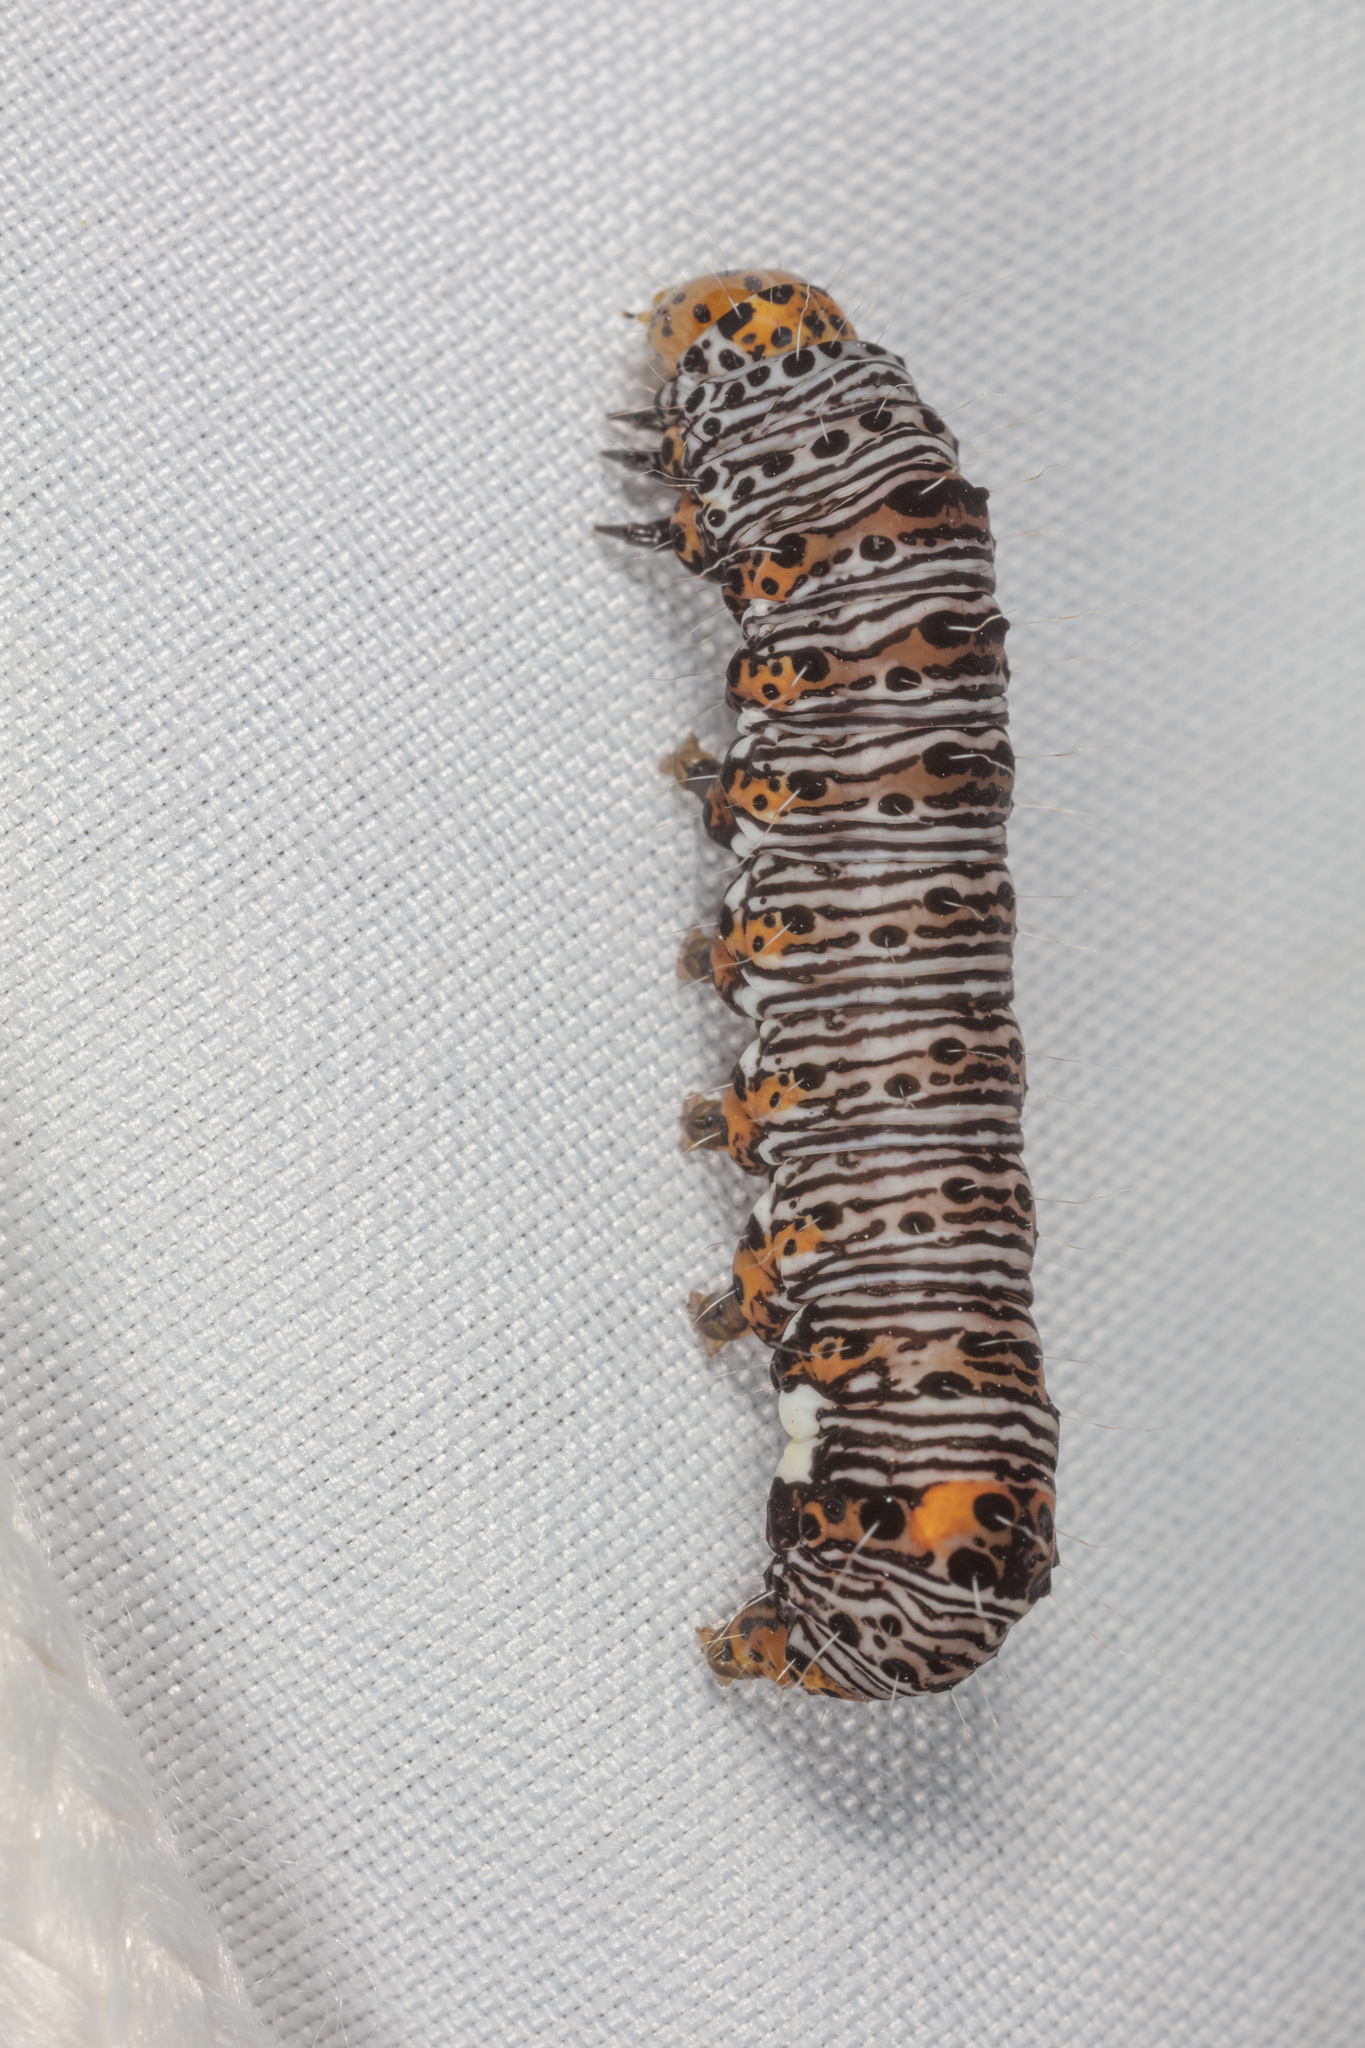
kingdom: Animalia
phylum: Arthropoda
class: Insecta
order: Lepidoptera
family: Noctuidae
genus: Alypia
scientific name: Alypia octomaculata
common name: Eight-spotted forester
